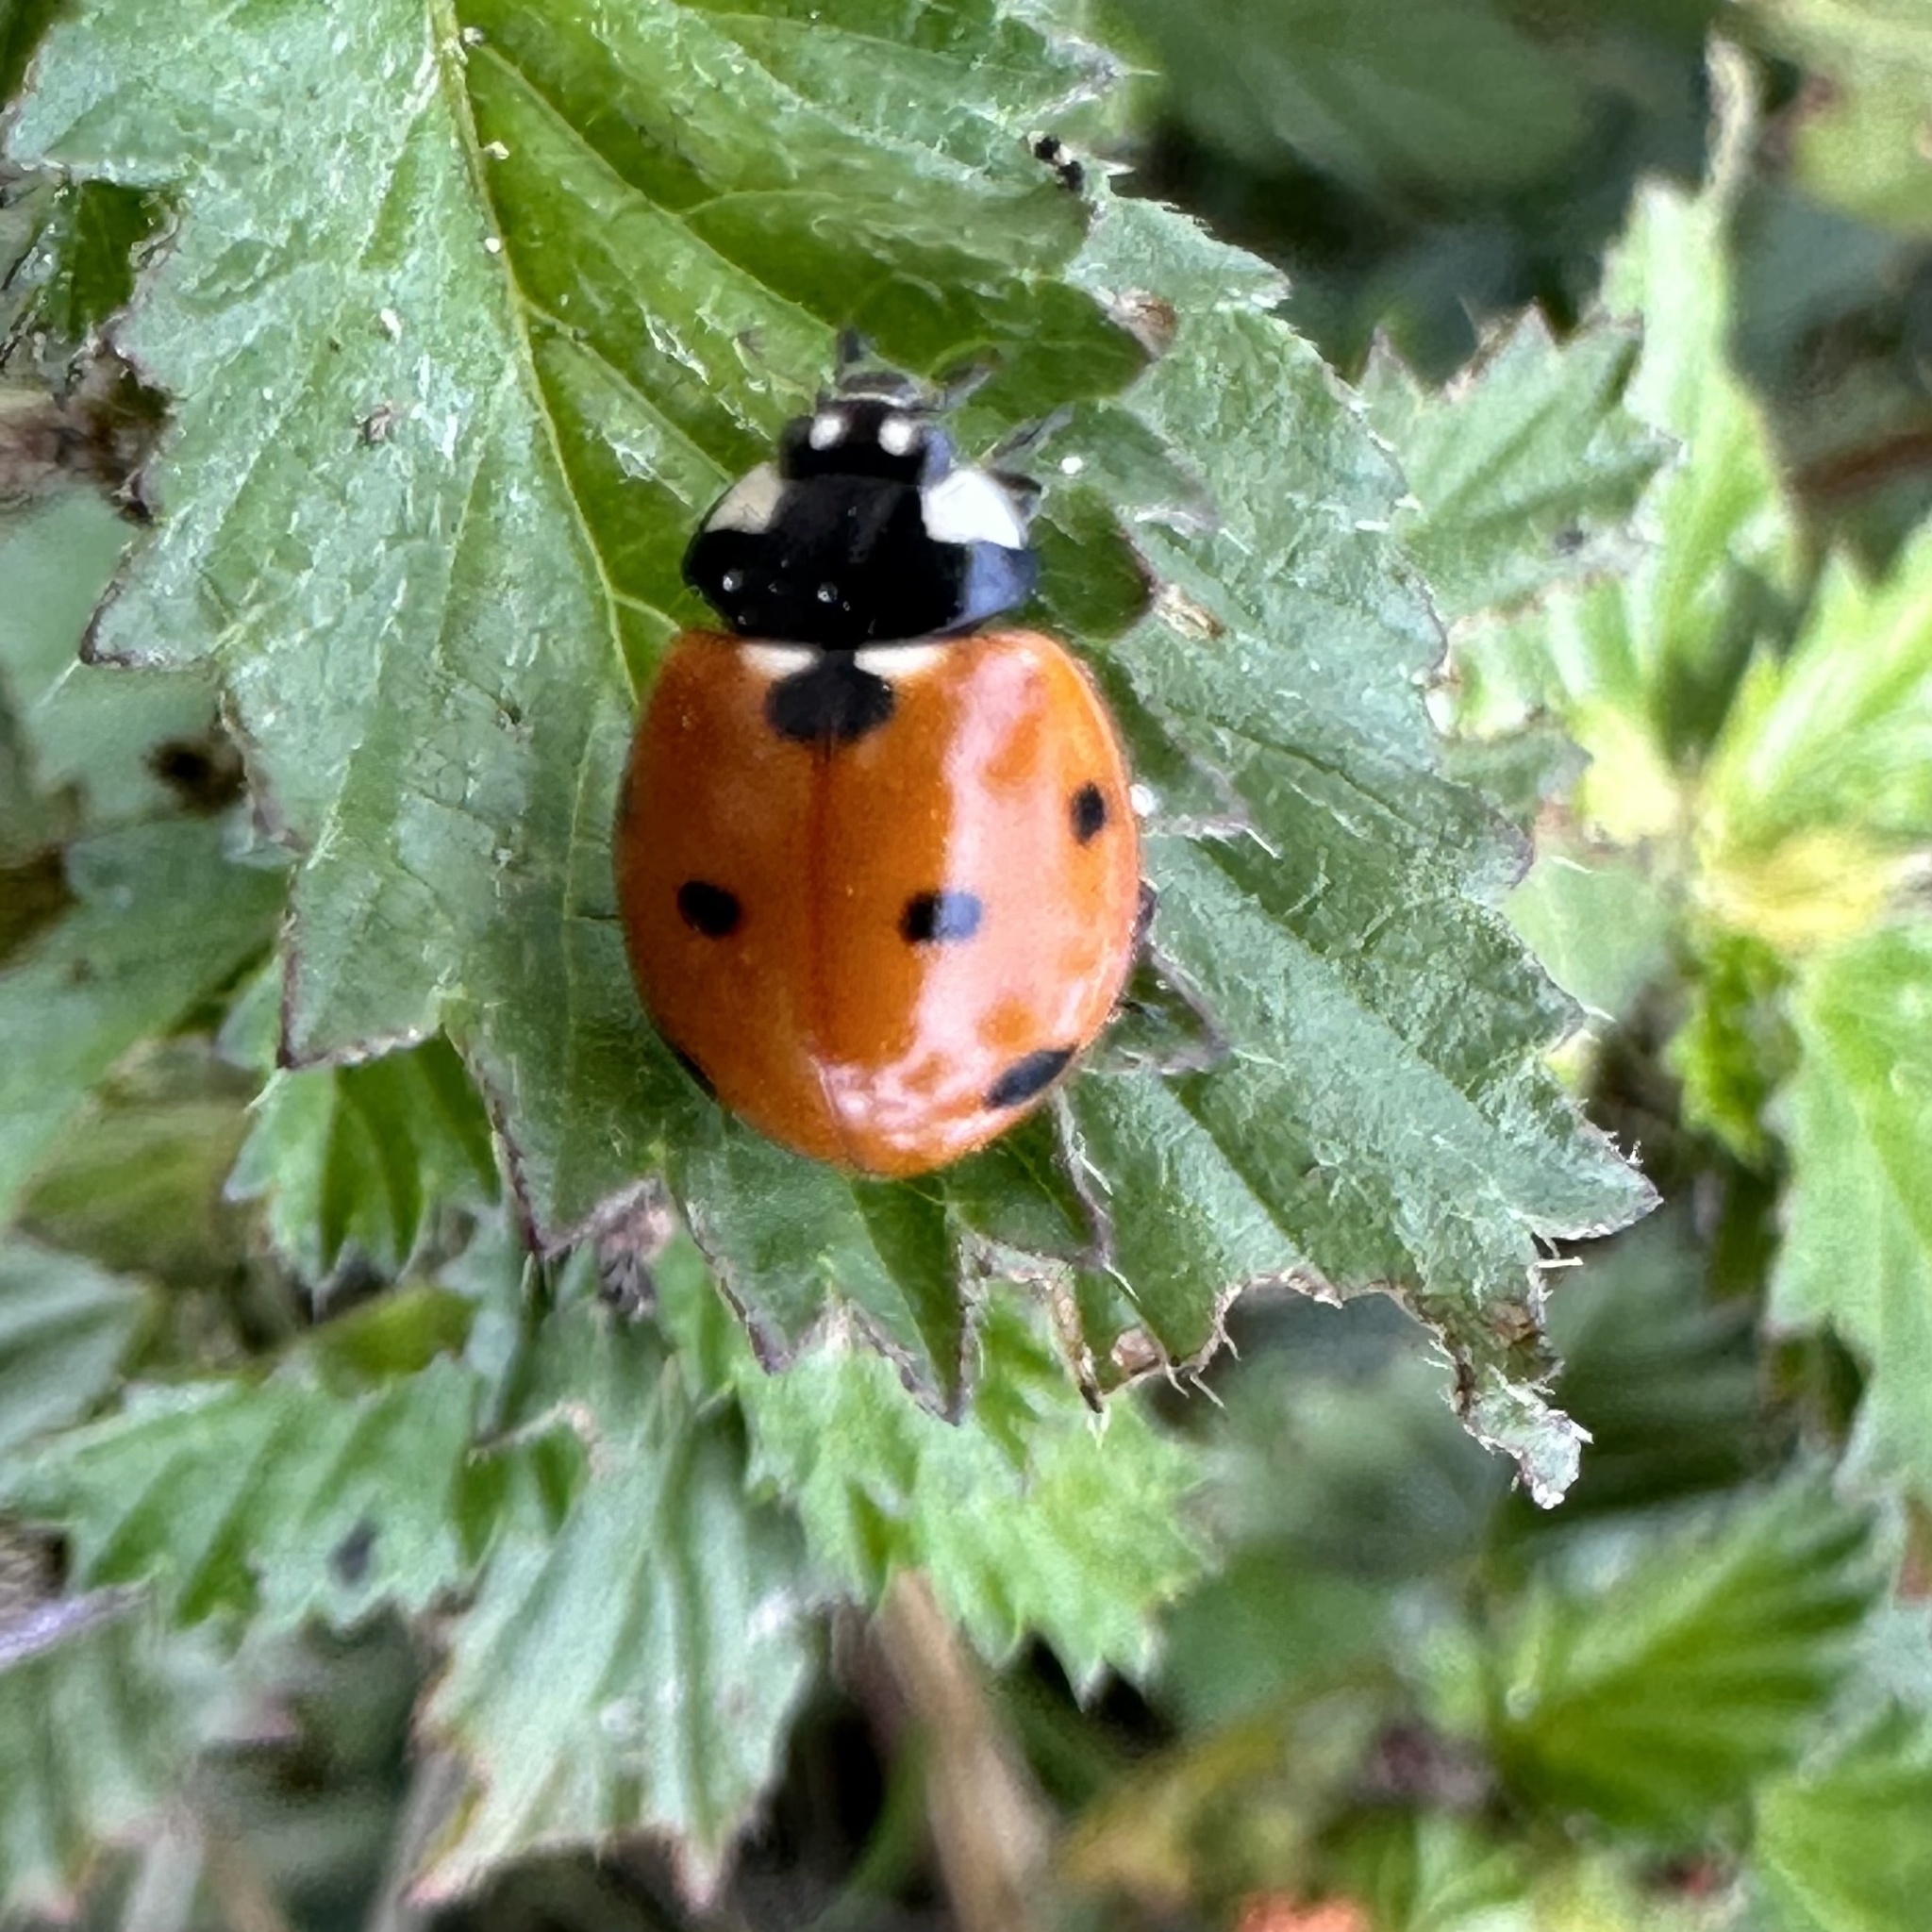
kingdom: Animalia
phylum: Arthropoda
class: Insecta
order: Coleoptera
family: Coccinellidae
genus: Coccinella
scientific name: Coccinella septempunctata
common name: Sevenspotted lady beetle
